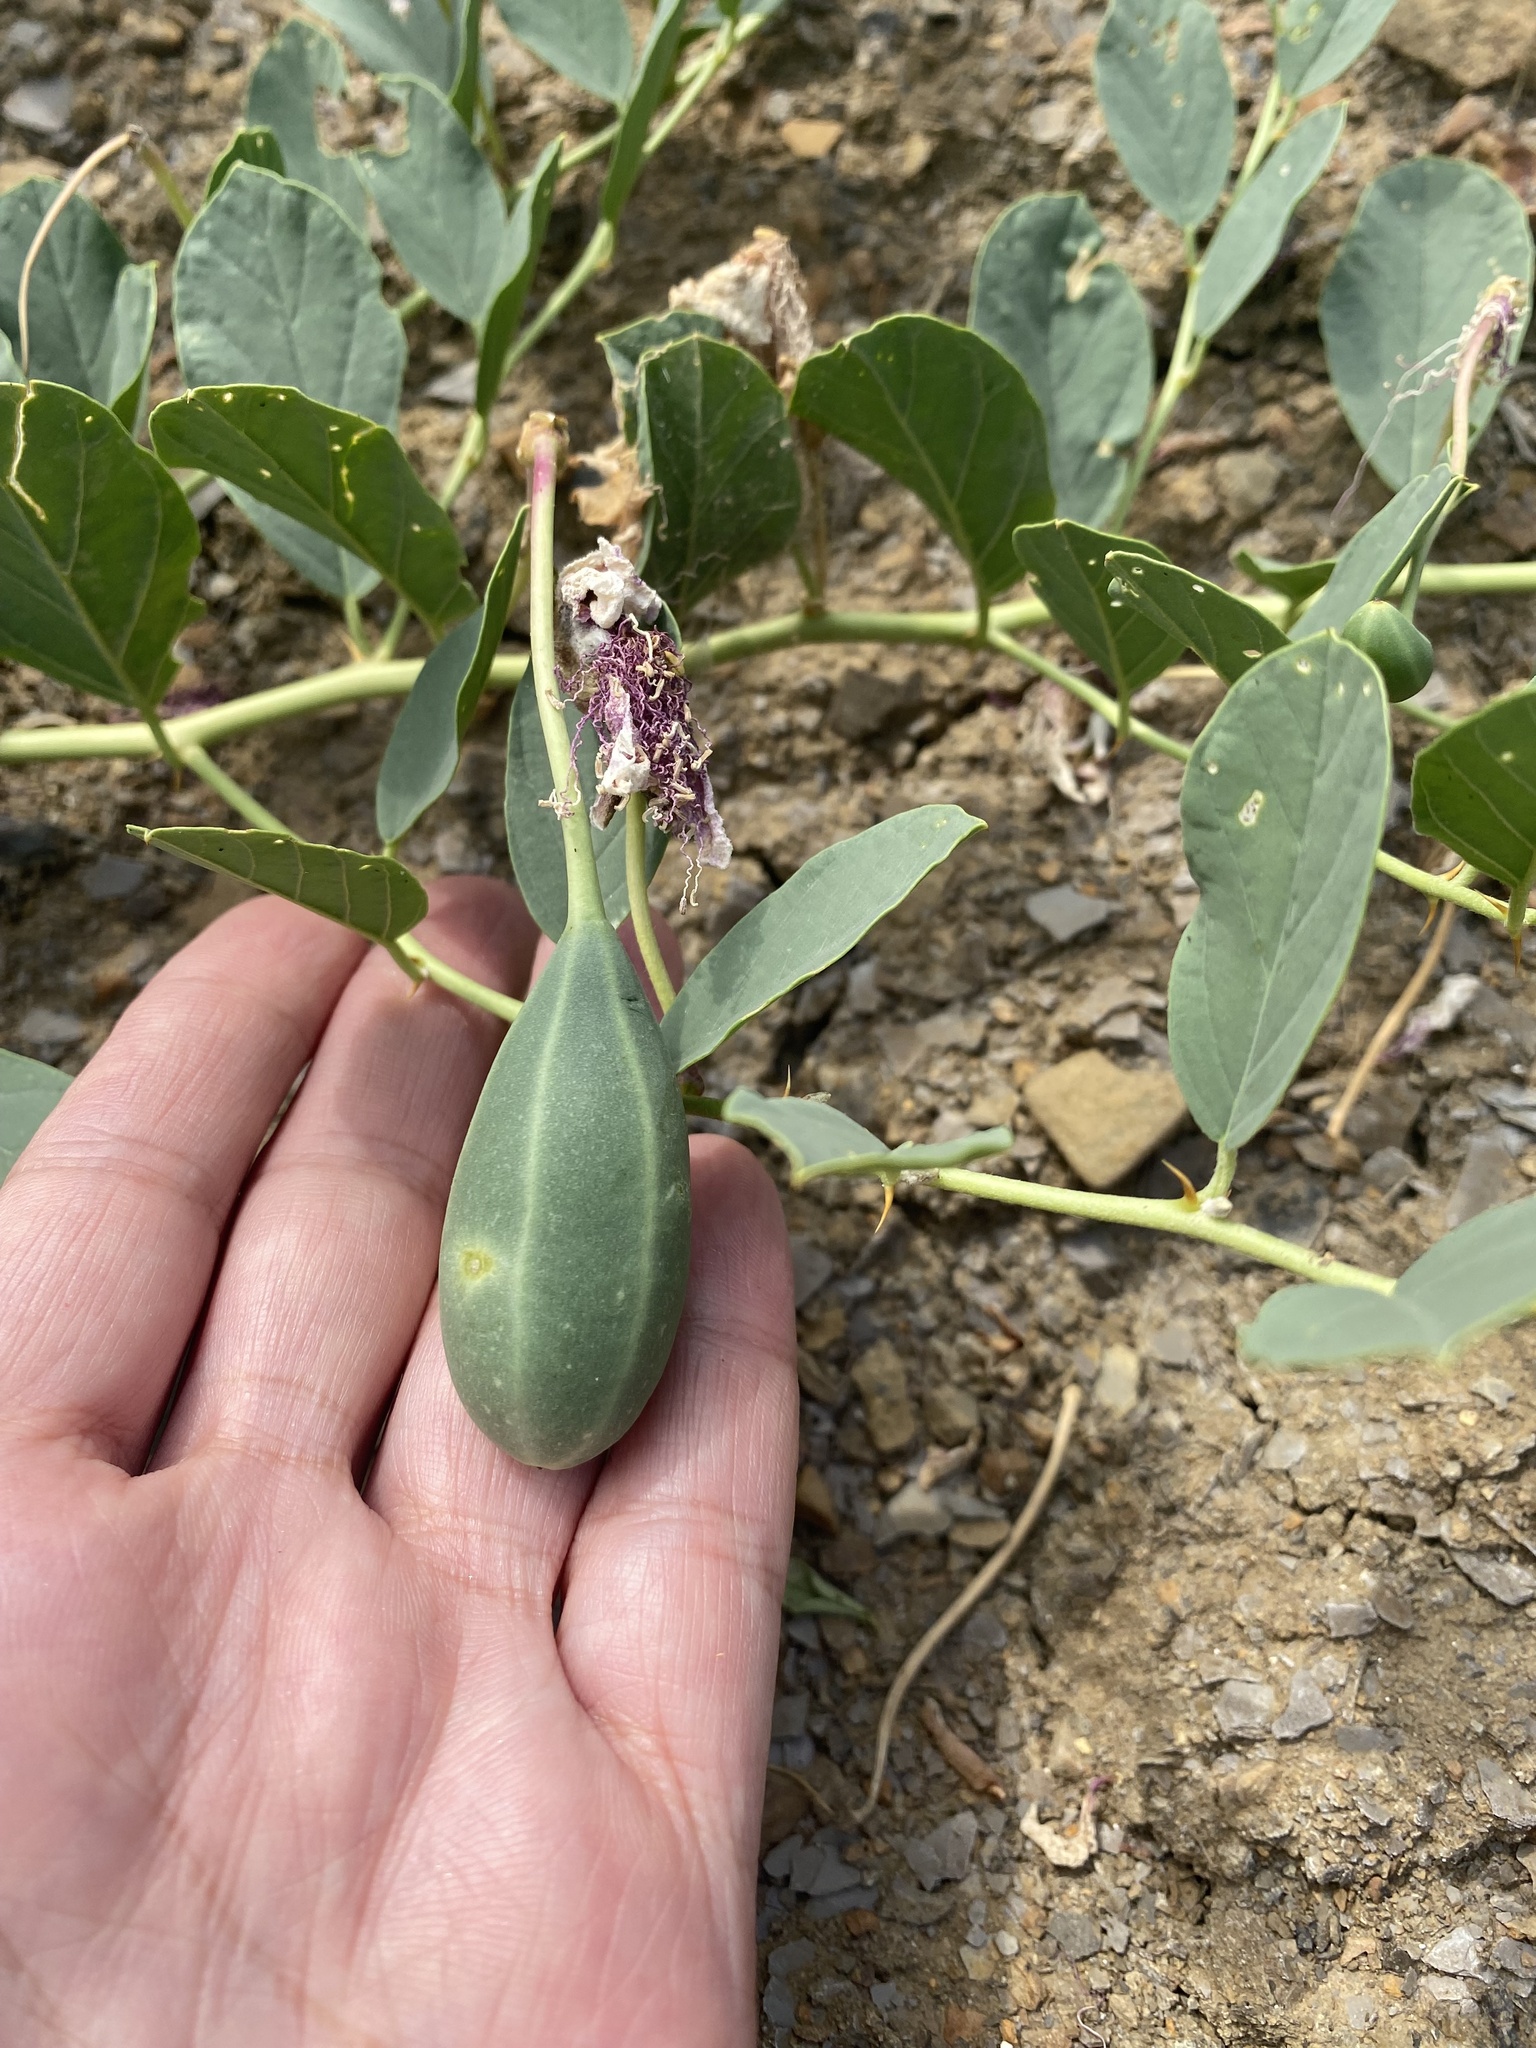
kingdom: Plantae
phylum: Tracheophyta
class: Magnoliopsida
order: Brassicales
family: Capparaceae
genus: Capparis
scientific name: Capparis spinosa
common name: Caper
